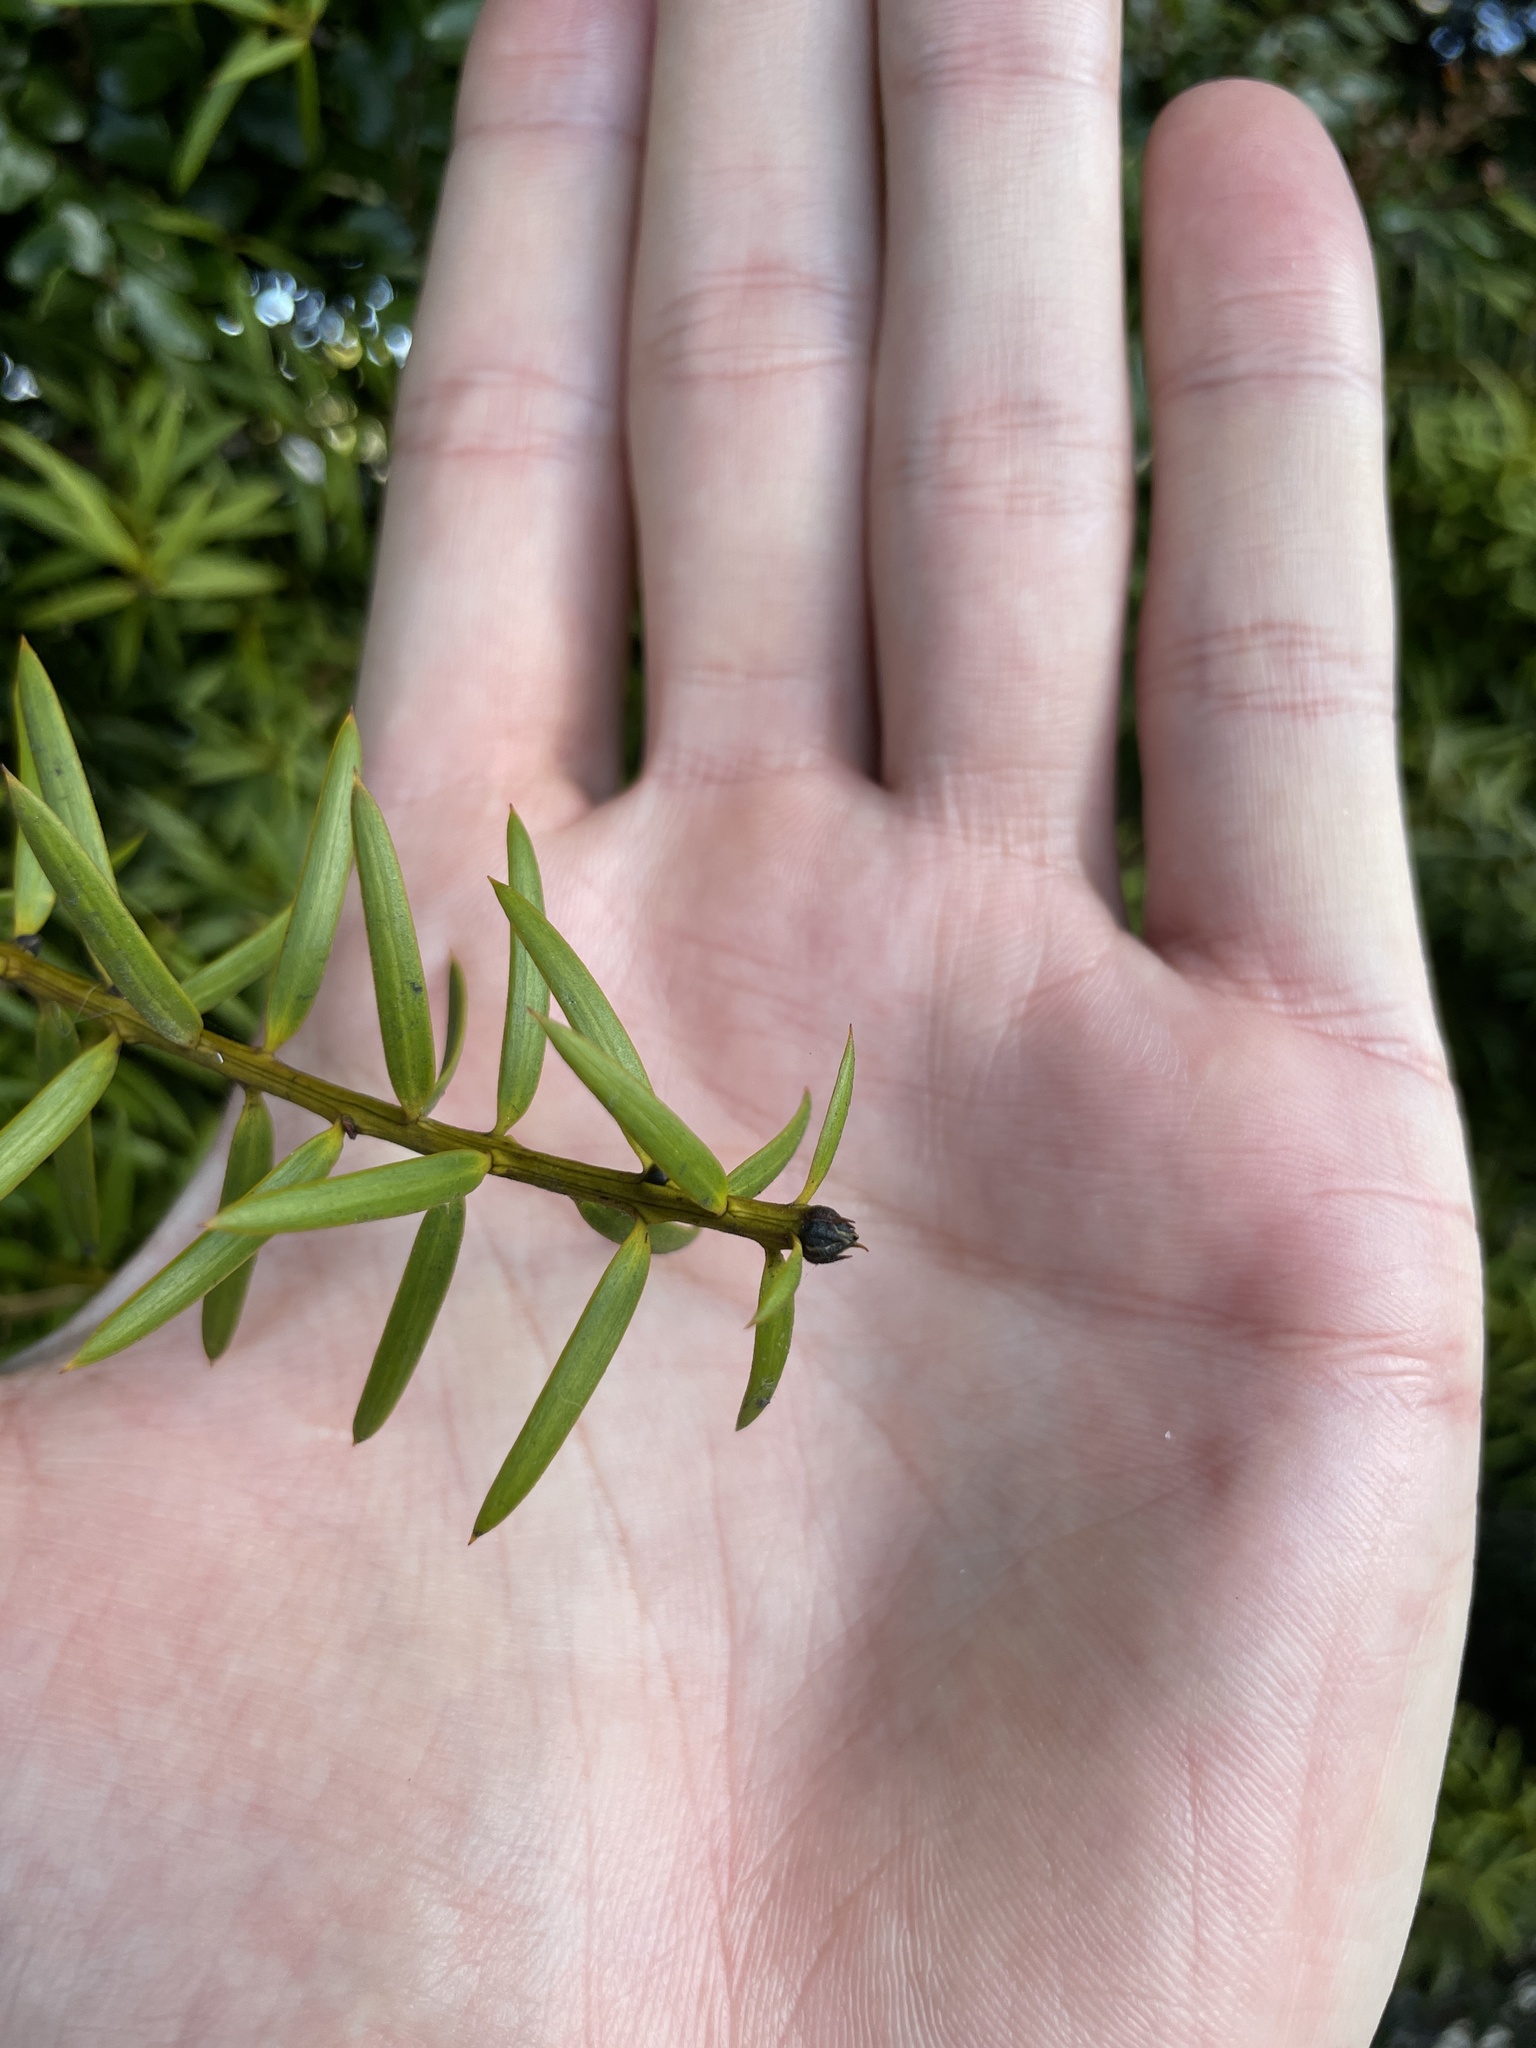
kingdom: Plantae
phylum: Tracheophyta
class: Pinopsida
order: Pinales
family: Podocarpaceae
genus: Podocarpus
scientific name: Podocarpus totara
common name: Totara
